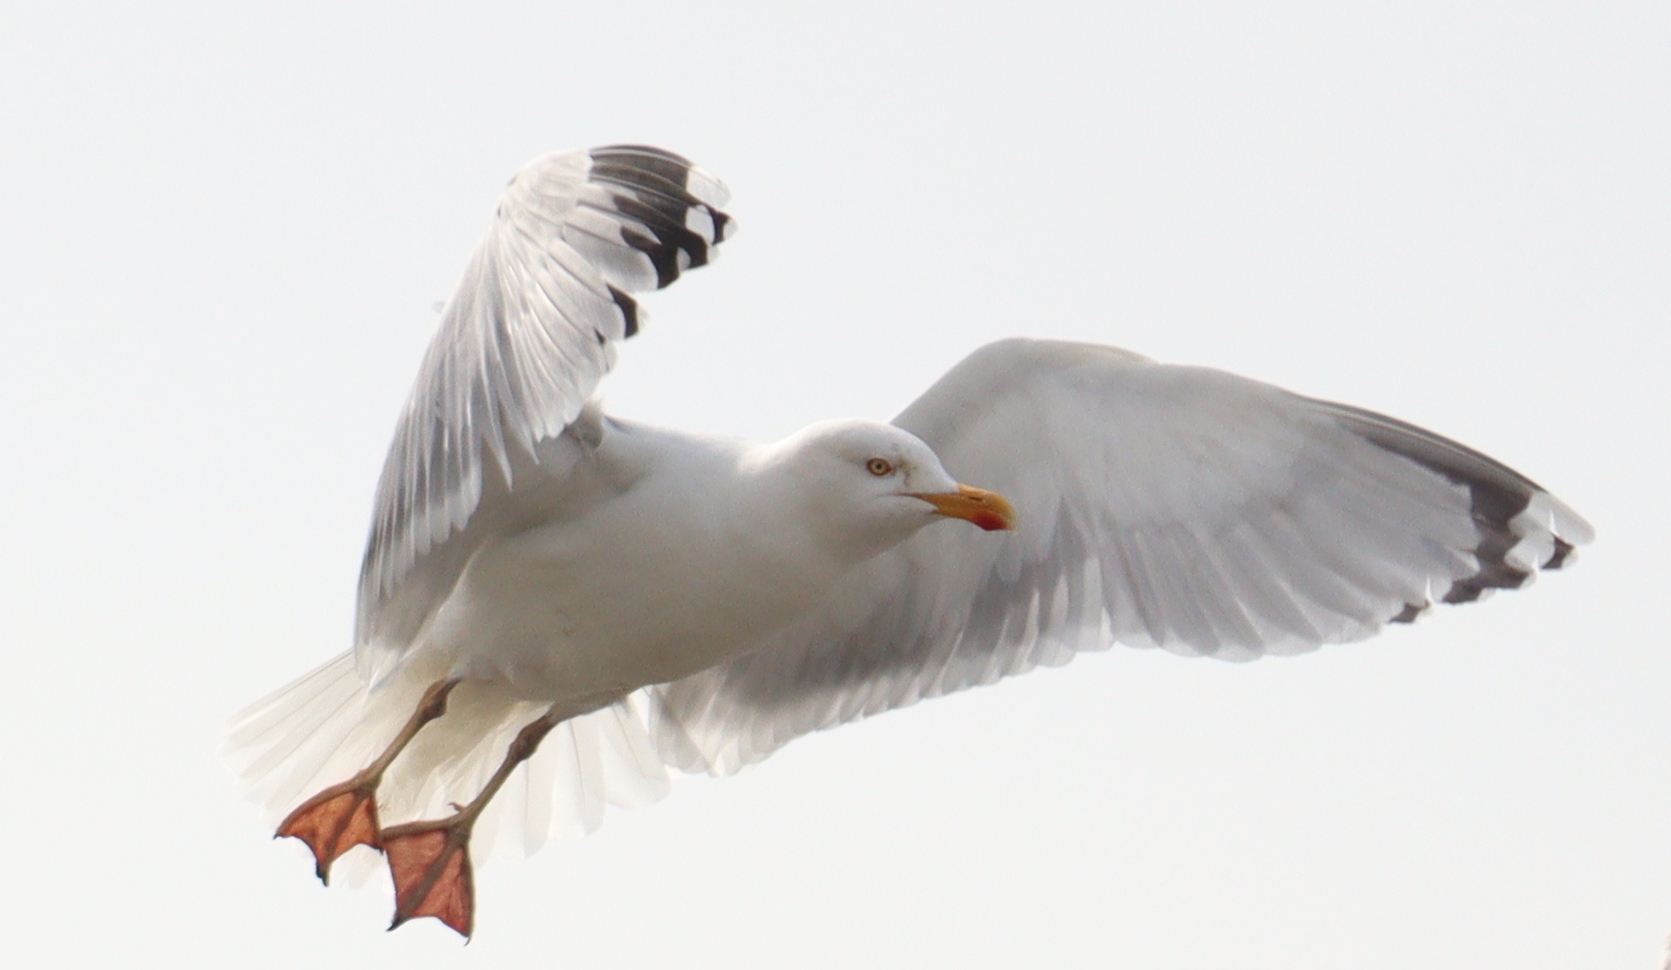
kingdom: Animalia
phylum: Chordata
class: Aves
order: Charadriiformes
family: Laridae
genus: Larus
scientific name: Larus argentatus
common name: Herring gull
